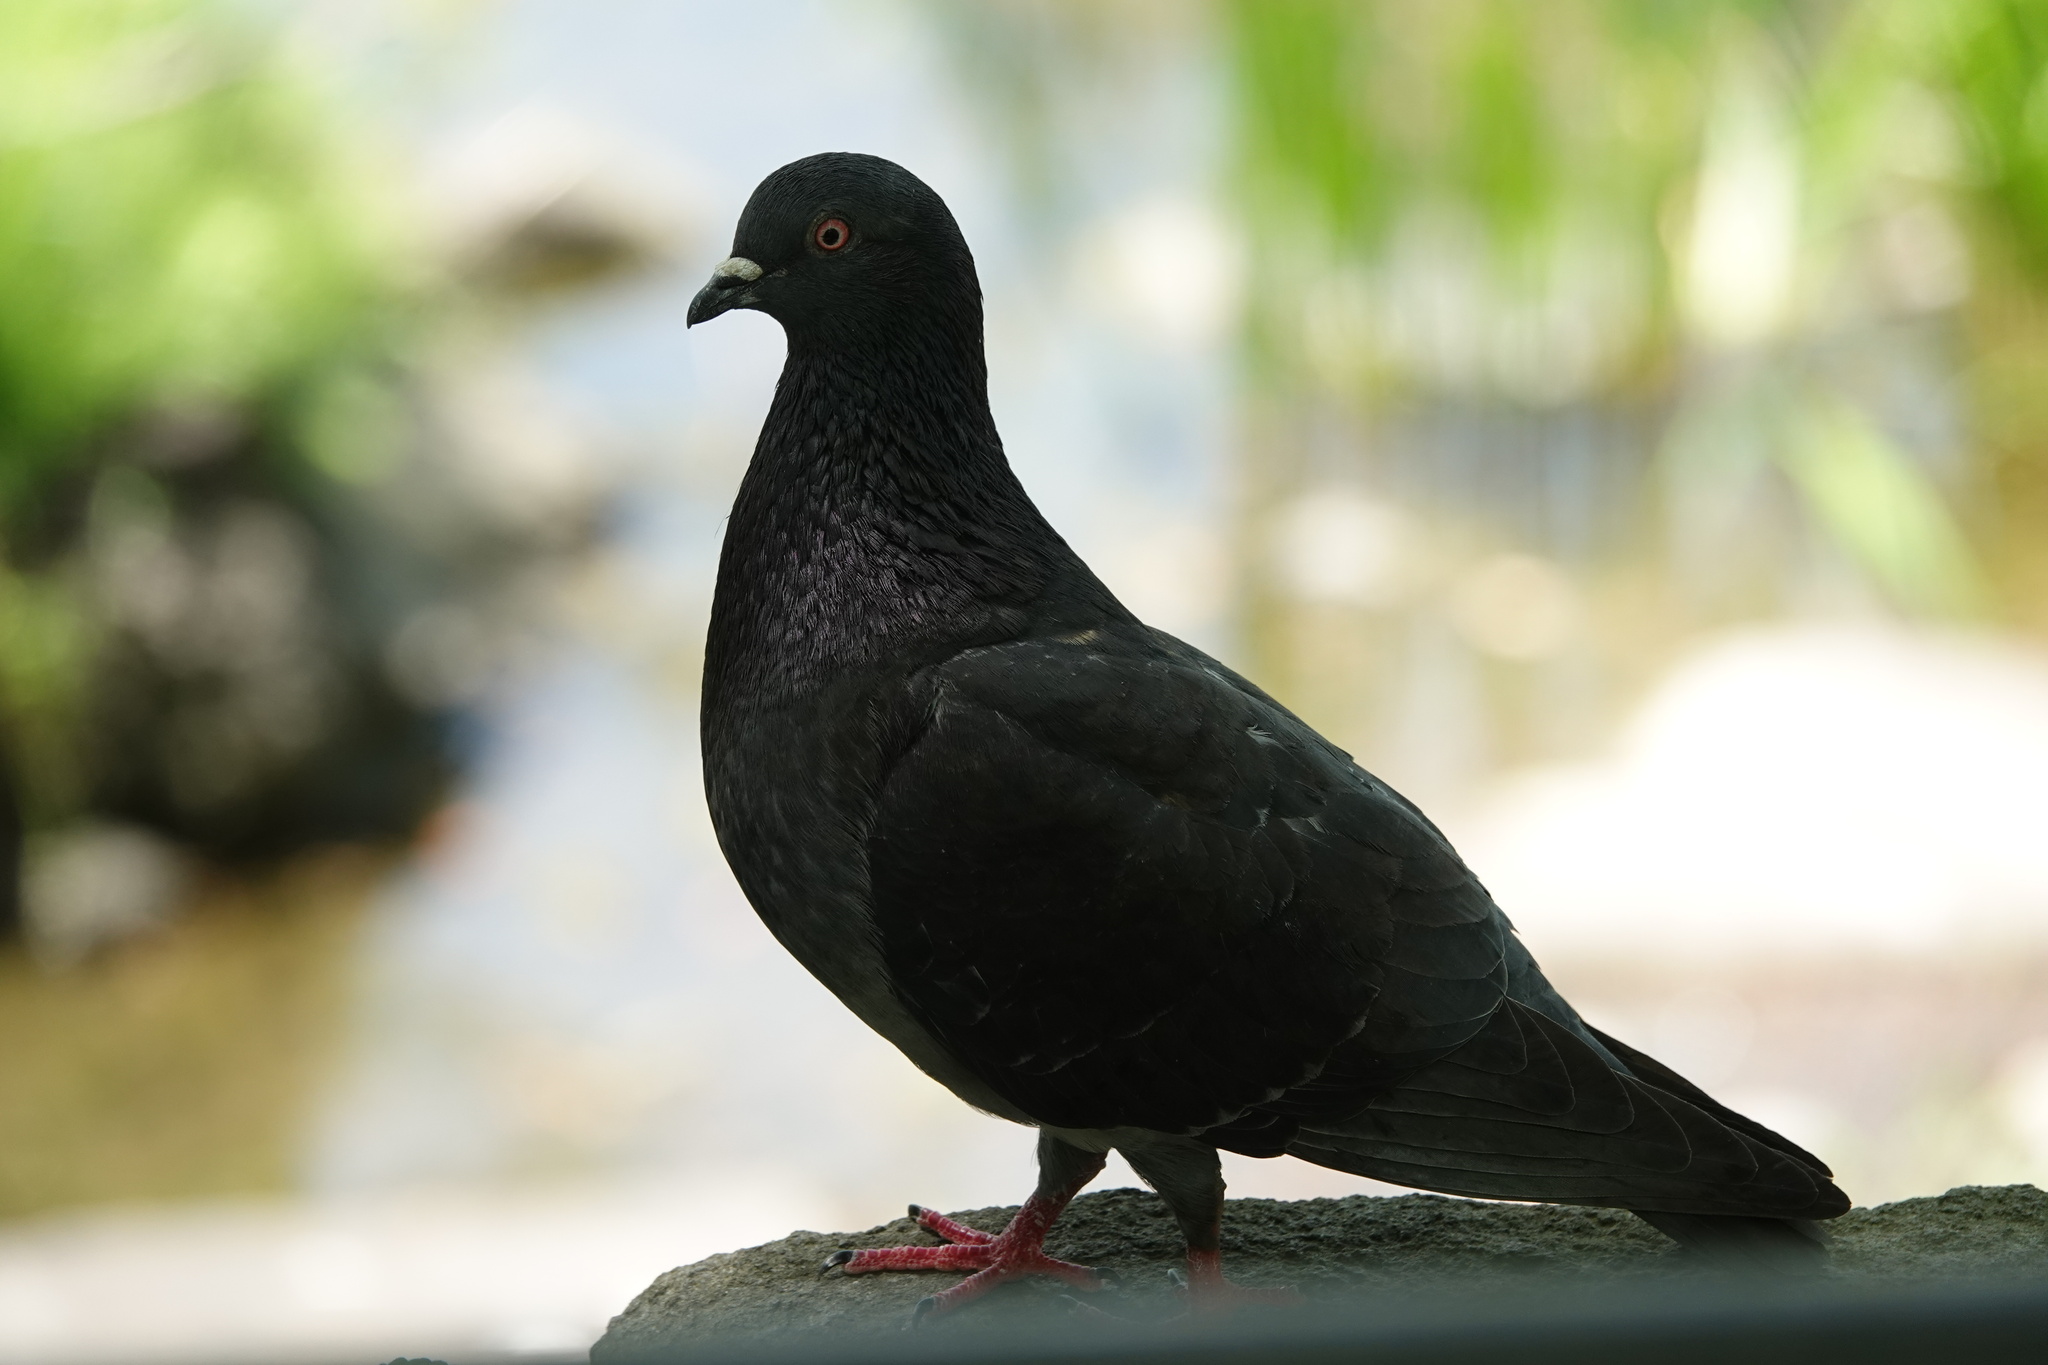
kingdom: Animalia
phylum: Chordata
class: Aves
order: Columbiformes
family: Columbidae
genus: Columba
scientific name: Columba livia
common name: Rock pigeon
